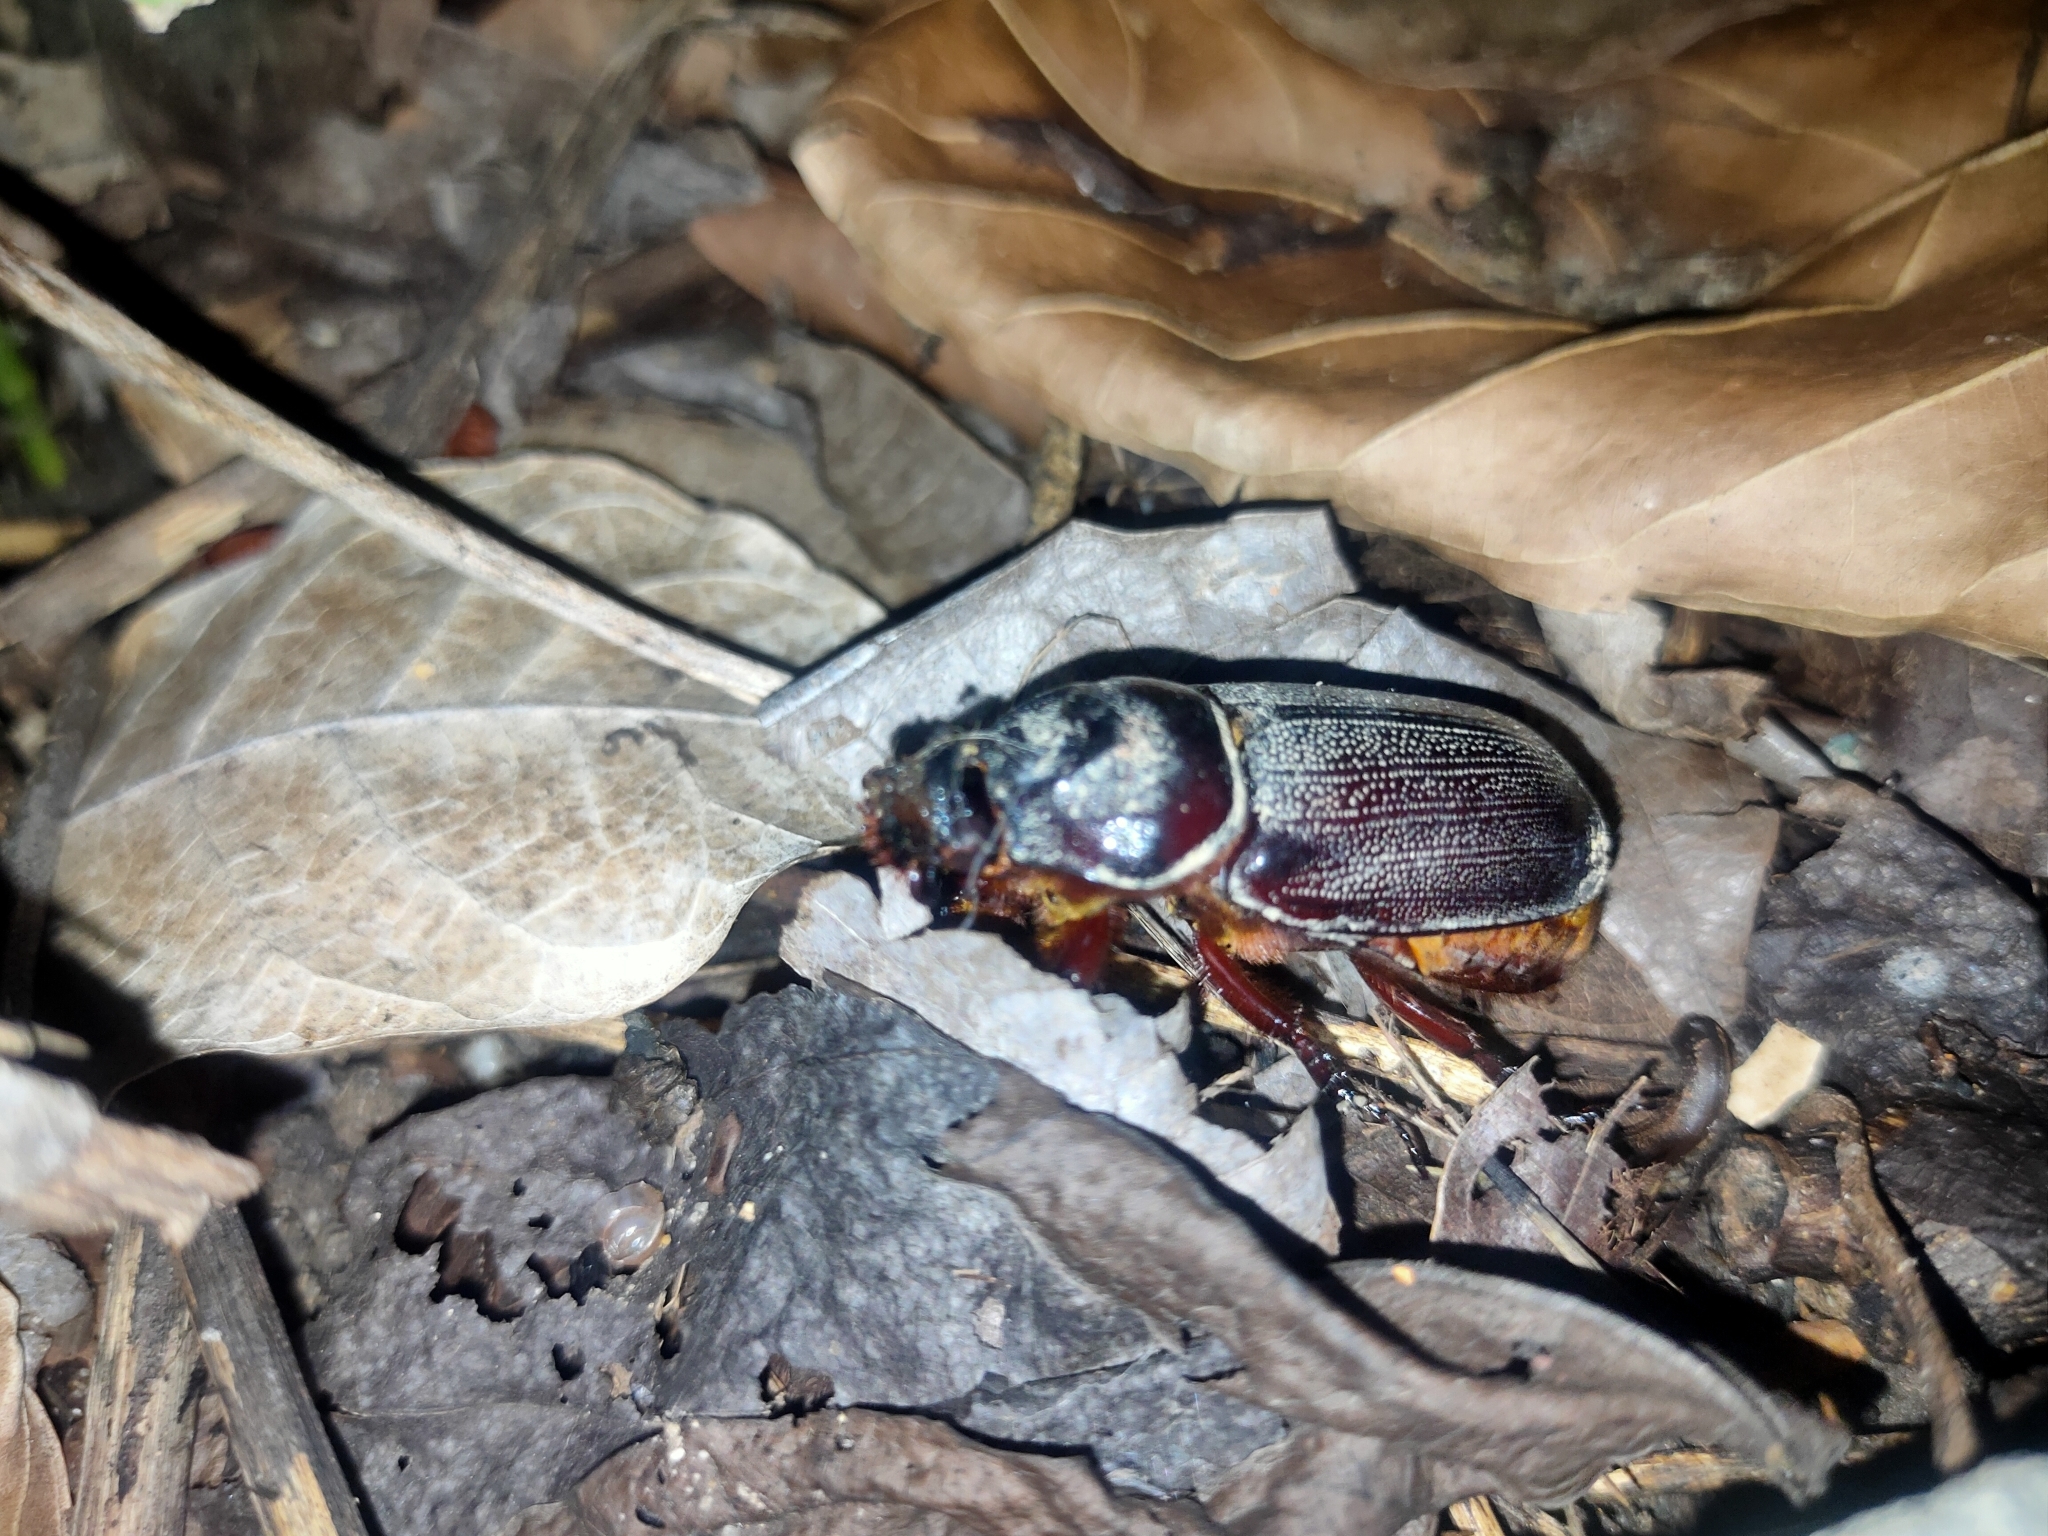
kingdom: Animalia
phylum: Arthropoda
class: Insecta
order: Coleoptera
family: Scarabaeidae
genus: Oryctes
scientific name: Oryctes rhinoceros
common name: Coconut rhinoceros beetle
